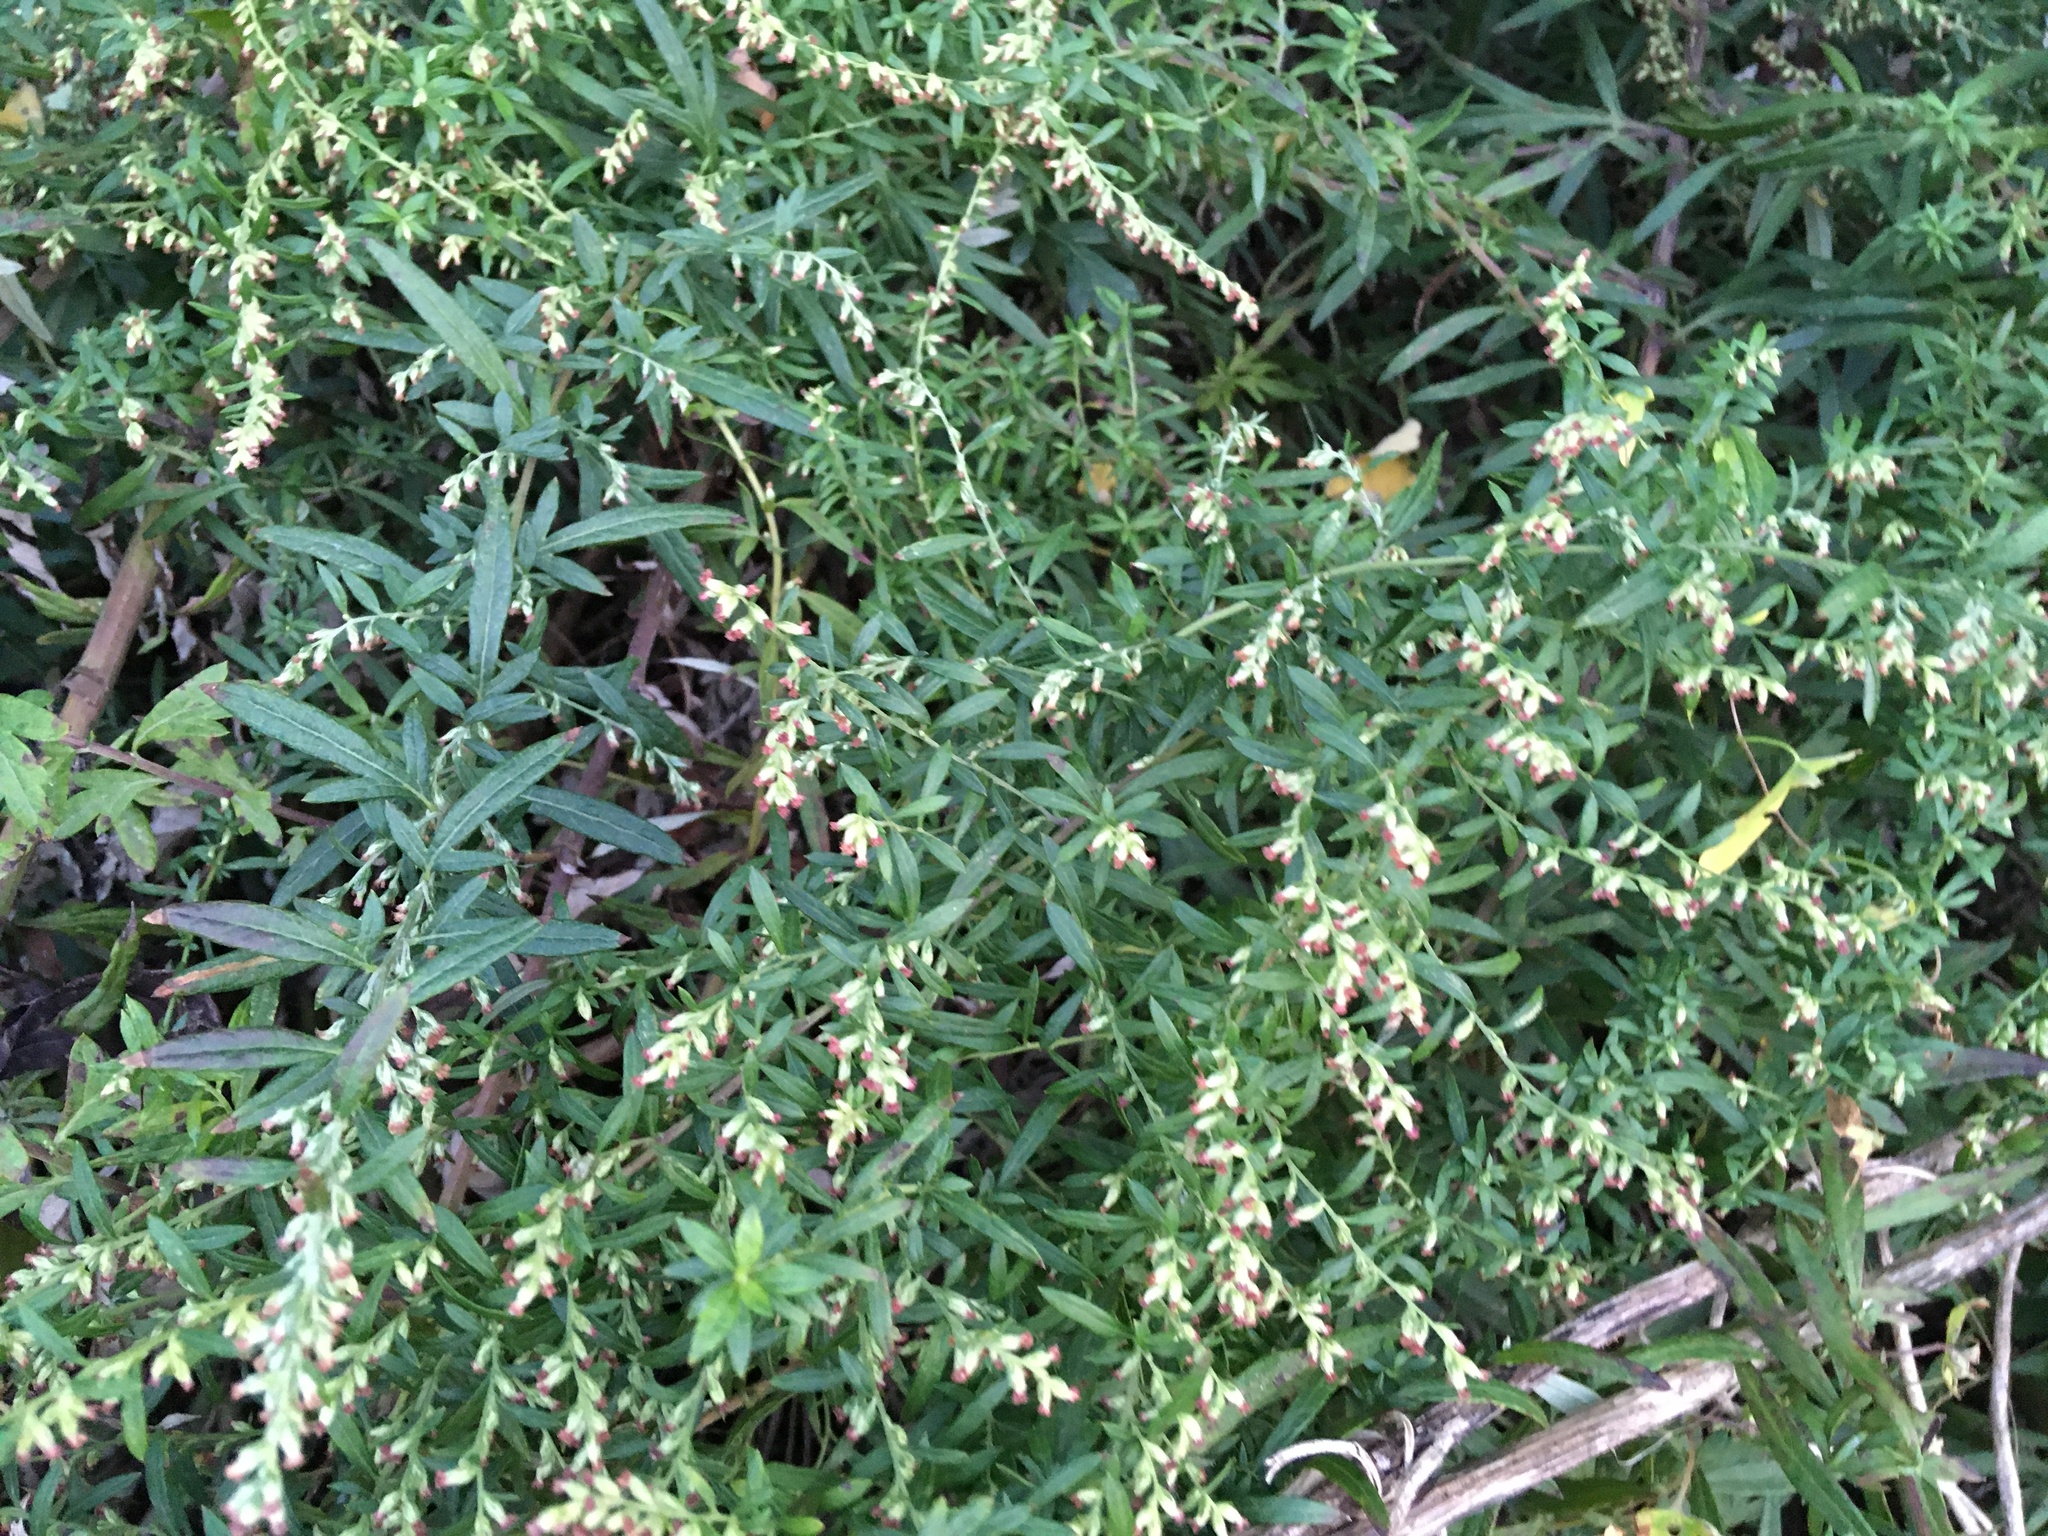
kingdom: Plantae
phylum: Tracheophyta
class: Magnoliopsida
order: Asterales
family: Asteraceae
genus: Artemisia
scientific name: Artemisia vulgaris
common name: Mugwort
